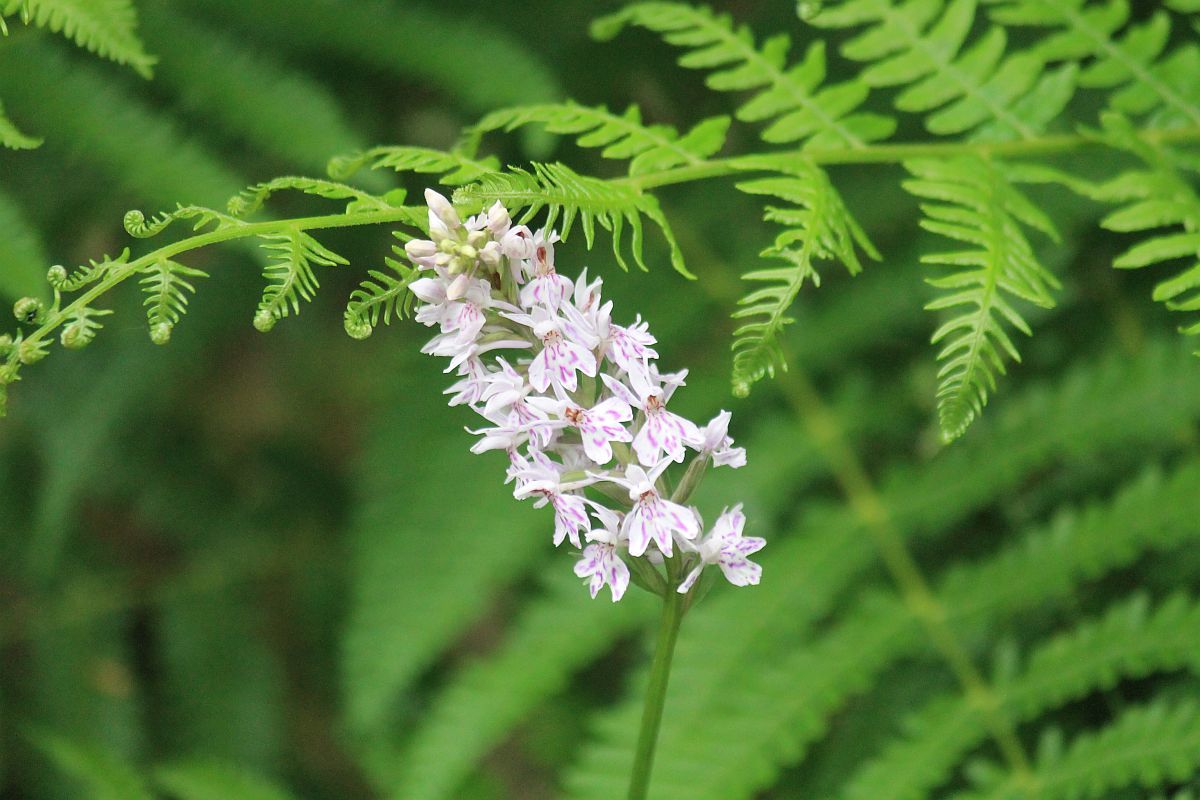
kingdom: Plantae
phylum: Tracheophyta
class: Liliopsida
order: Asparagales
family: Orchidaceae
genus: Dactylorhiza
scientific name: Dactylorhiza maculata
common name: Heath spotted-orchid
